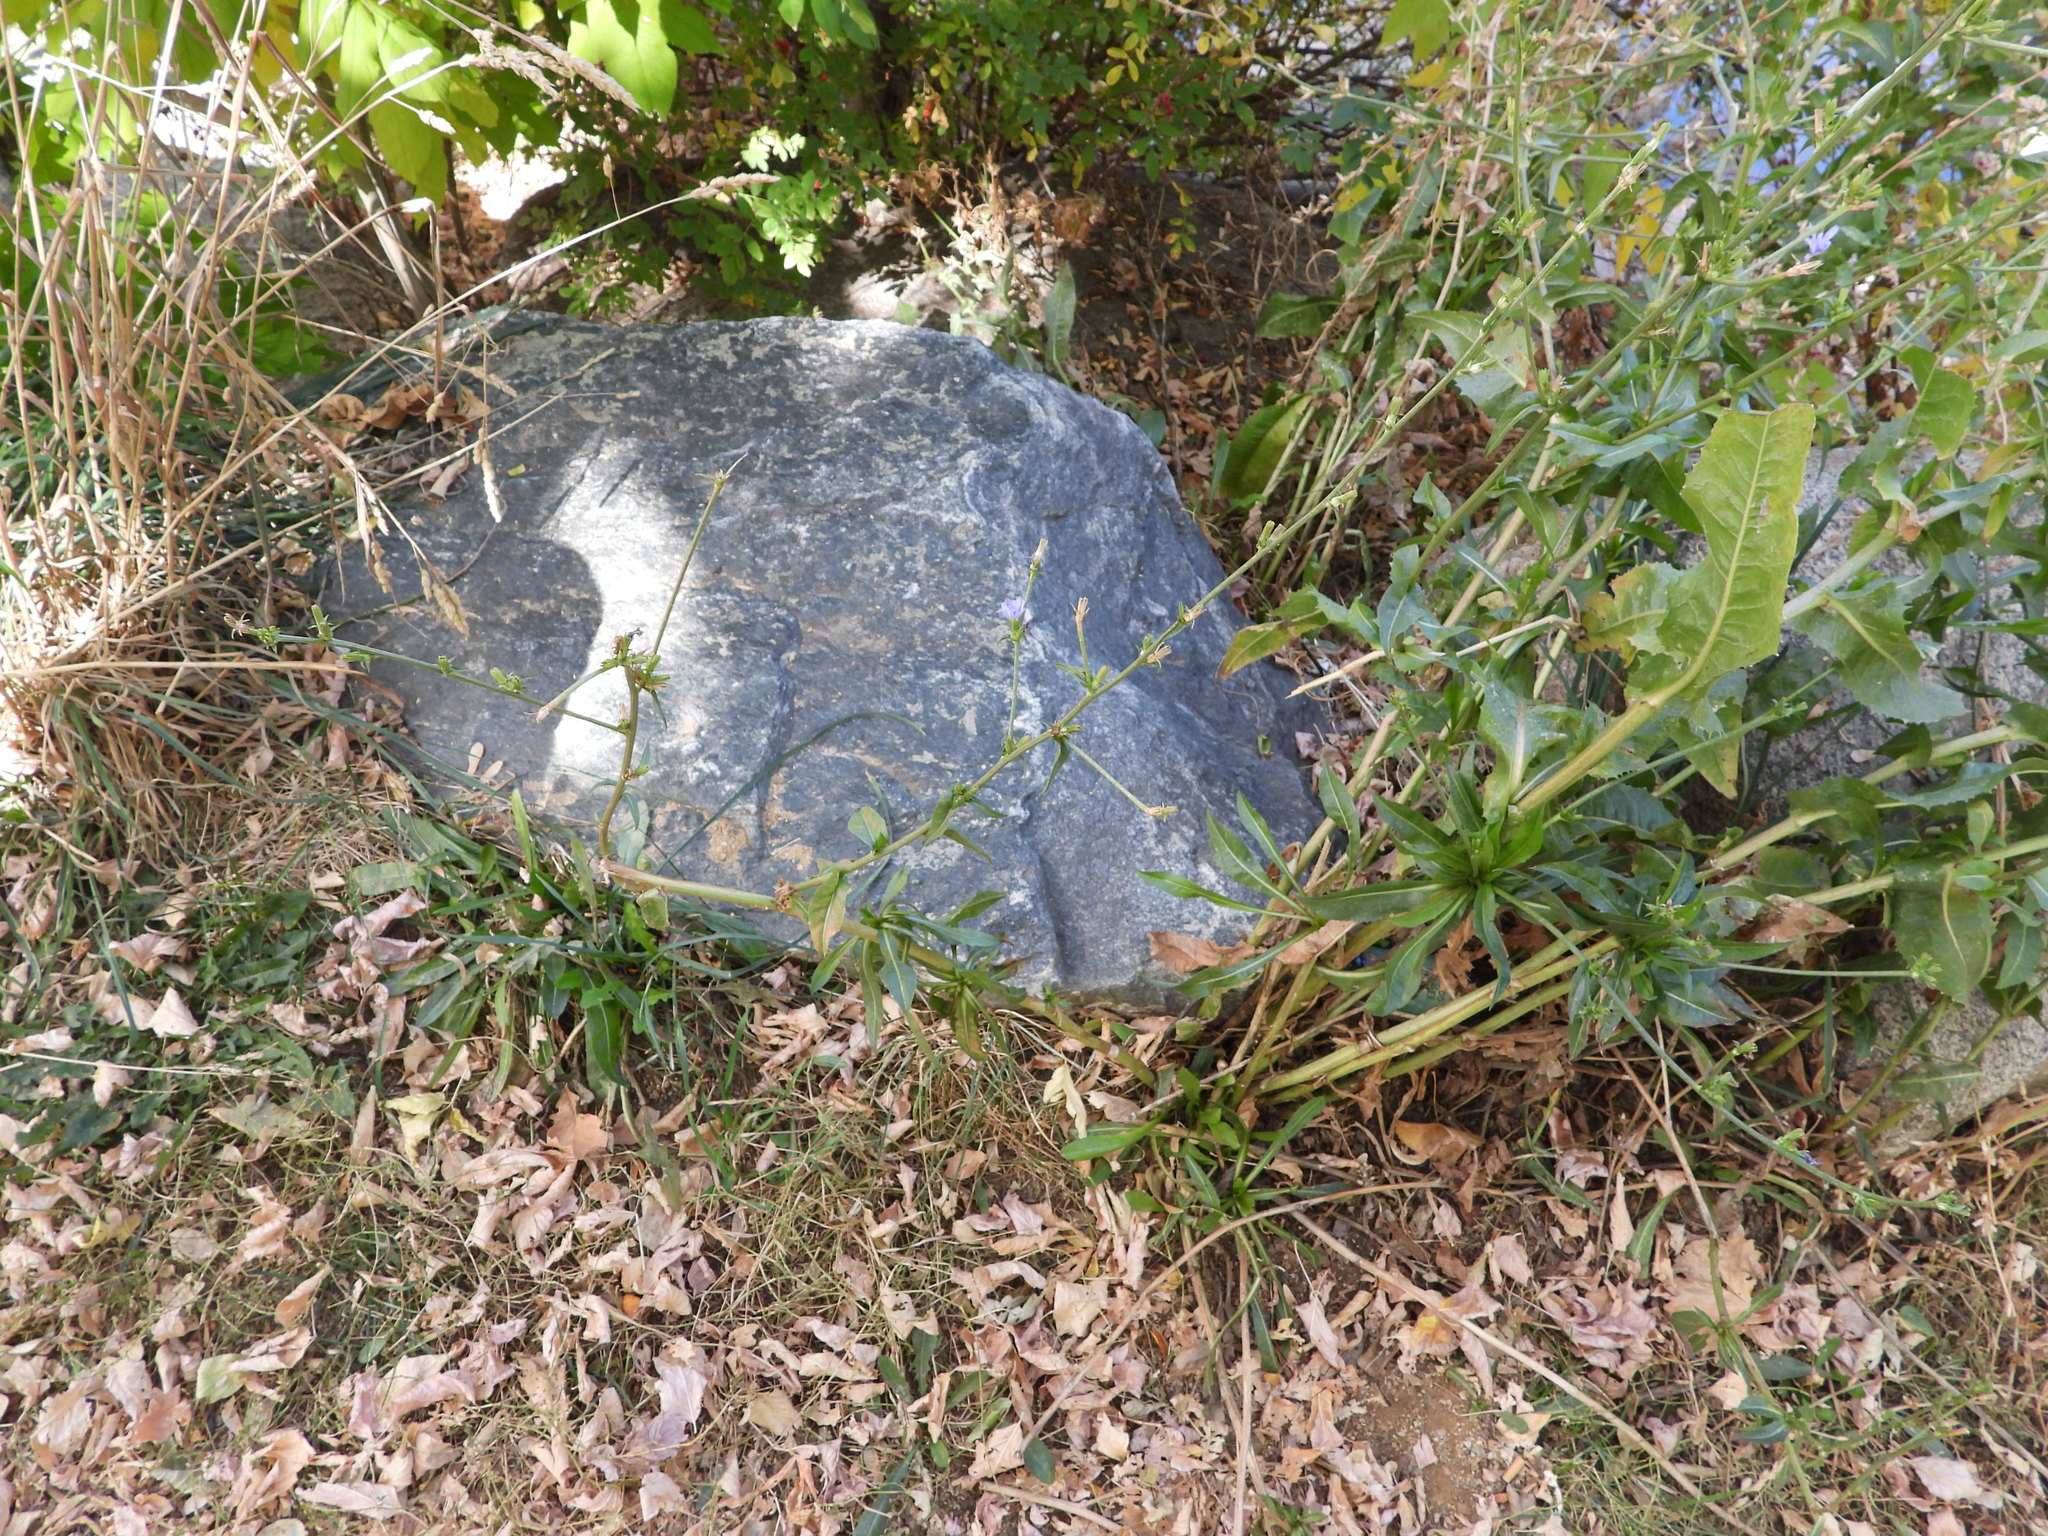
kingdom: Plantae
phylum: Tracheophyta
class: Magnoliopsida
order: Asterales
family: Asteraceae
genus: Cichorium
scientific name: Cichorium intybus
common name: Chicory
